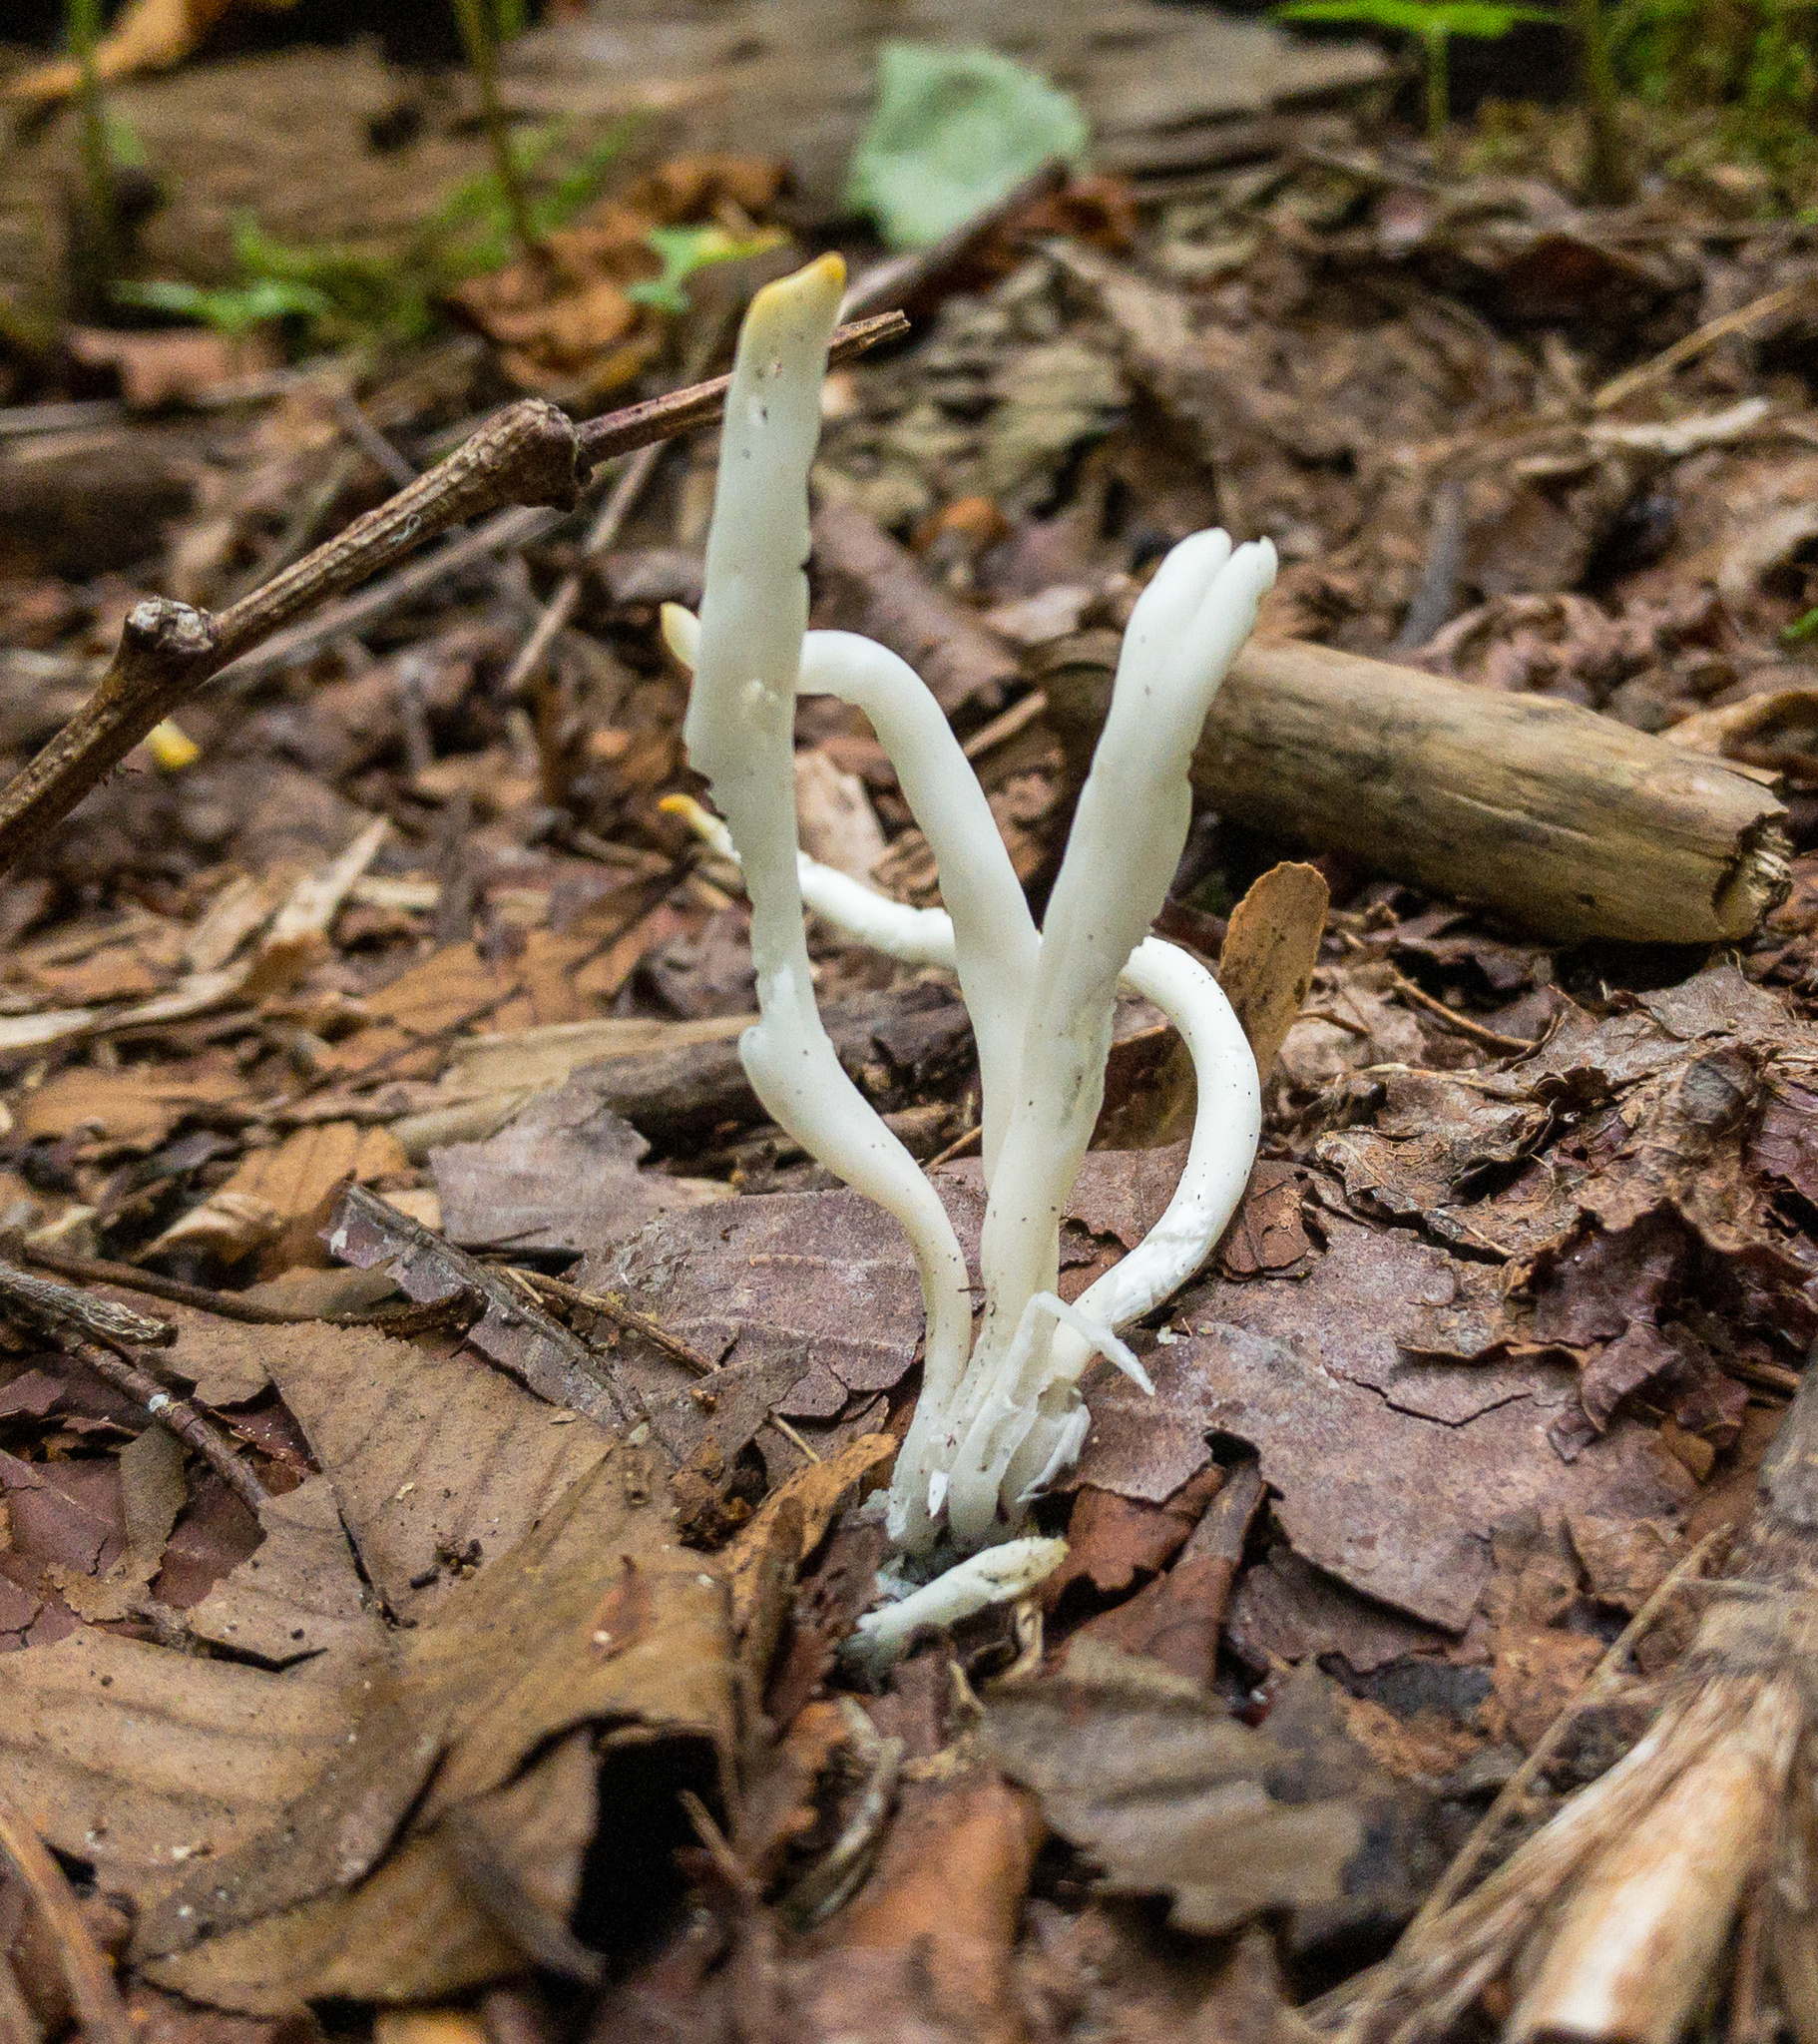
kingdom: Fungi
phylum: Basidiomycota
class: Agaricomycetes
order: Agaricales
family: Clavariaceae
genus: Clavaria
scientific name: Clavaria fragilis
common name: White spindles
